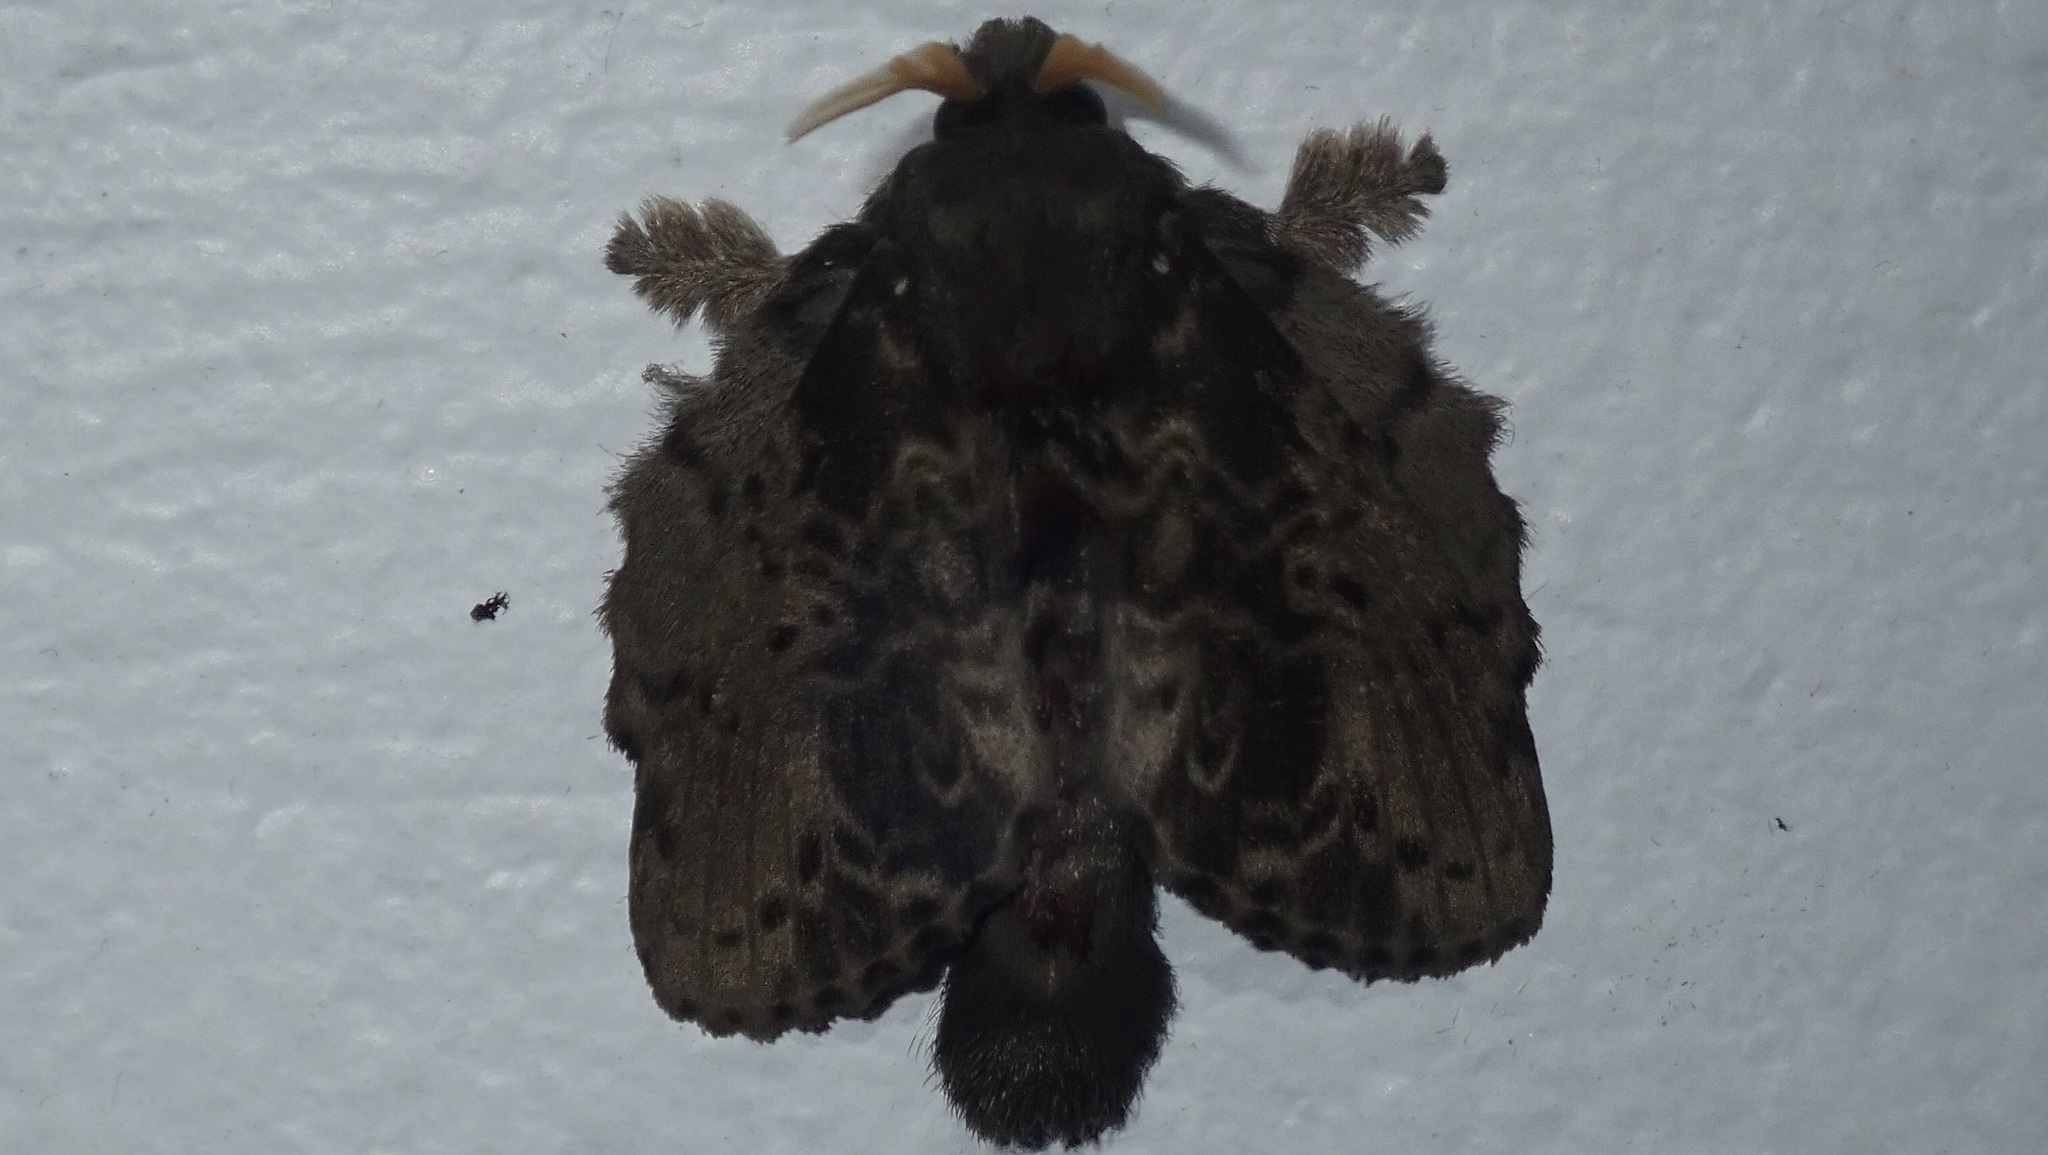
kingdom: Animalia
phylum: Arthropoda
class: Insecta
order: Lepidoptera
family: Lasiocampidae
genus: Euglyphis
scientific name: Euglyphis putrida
